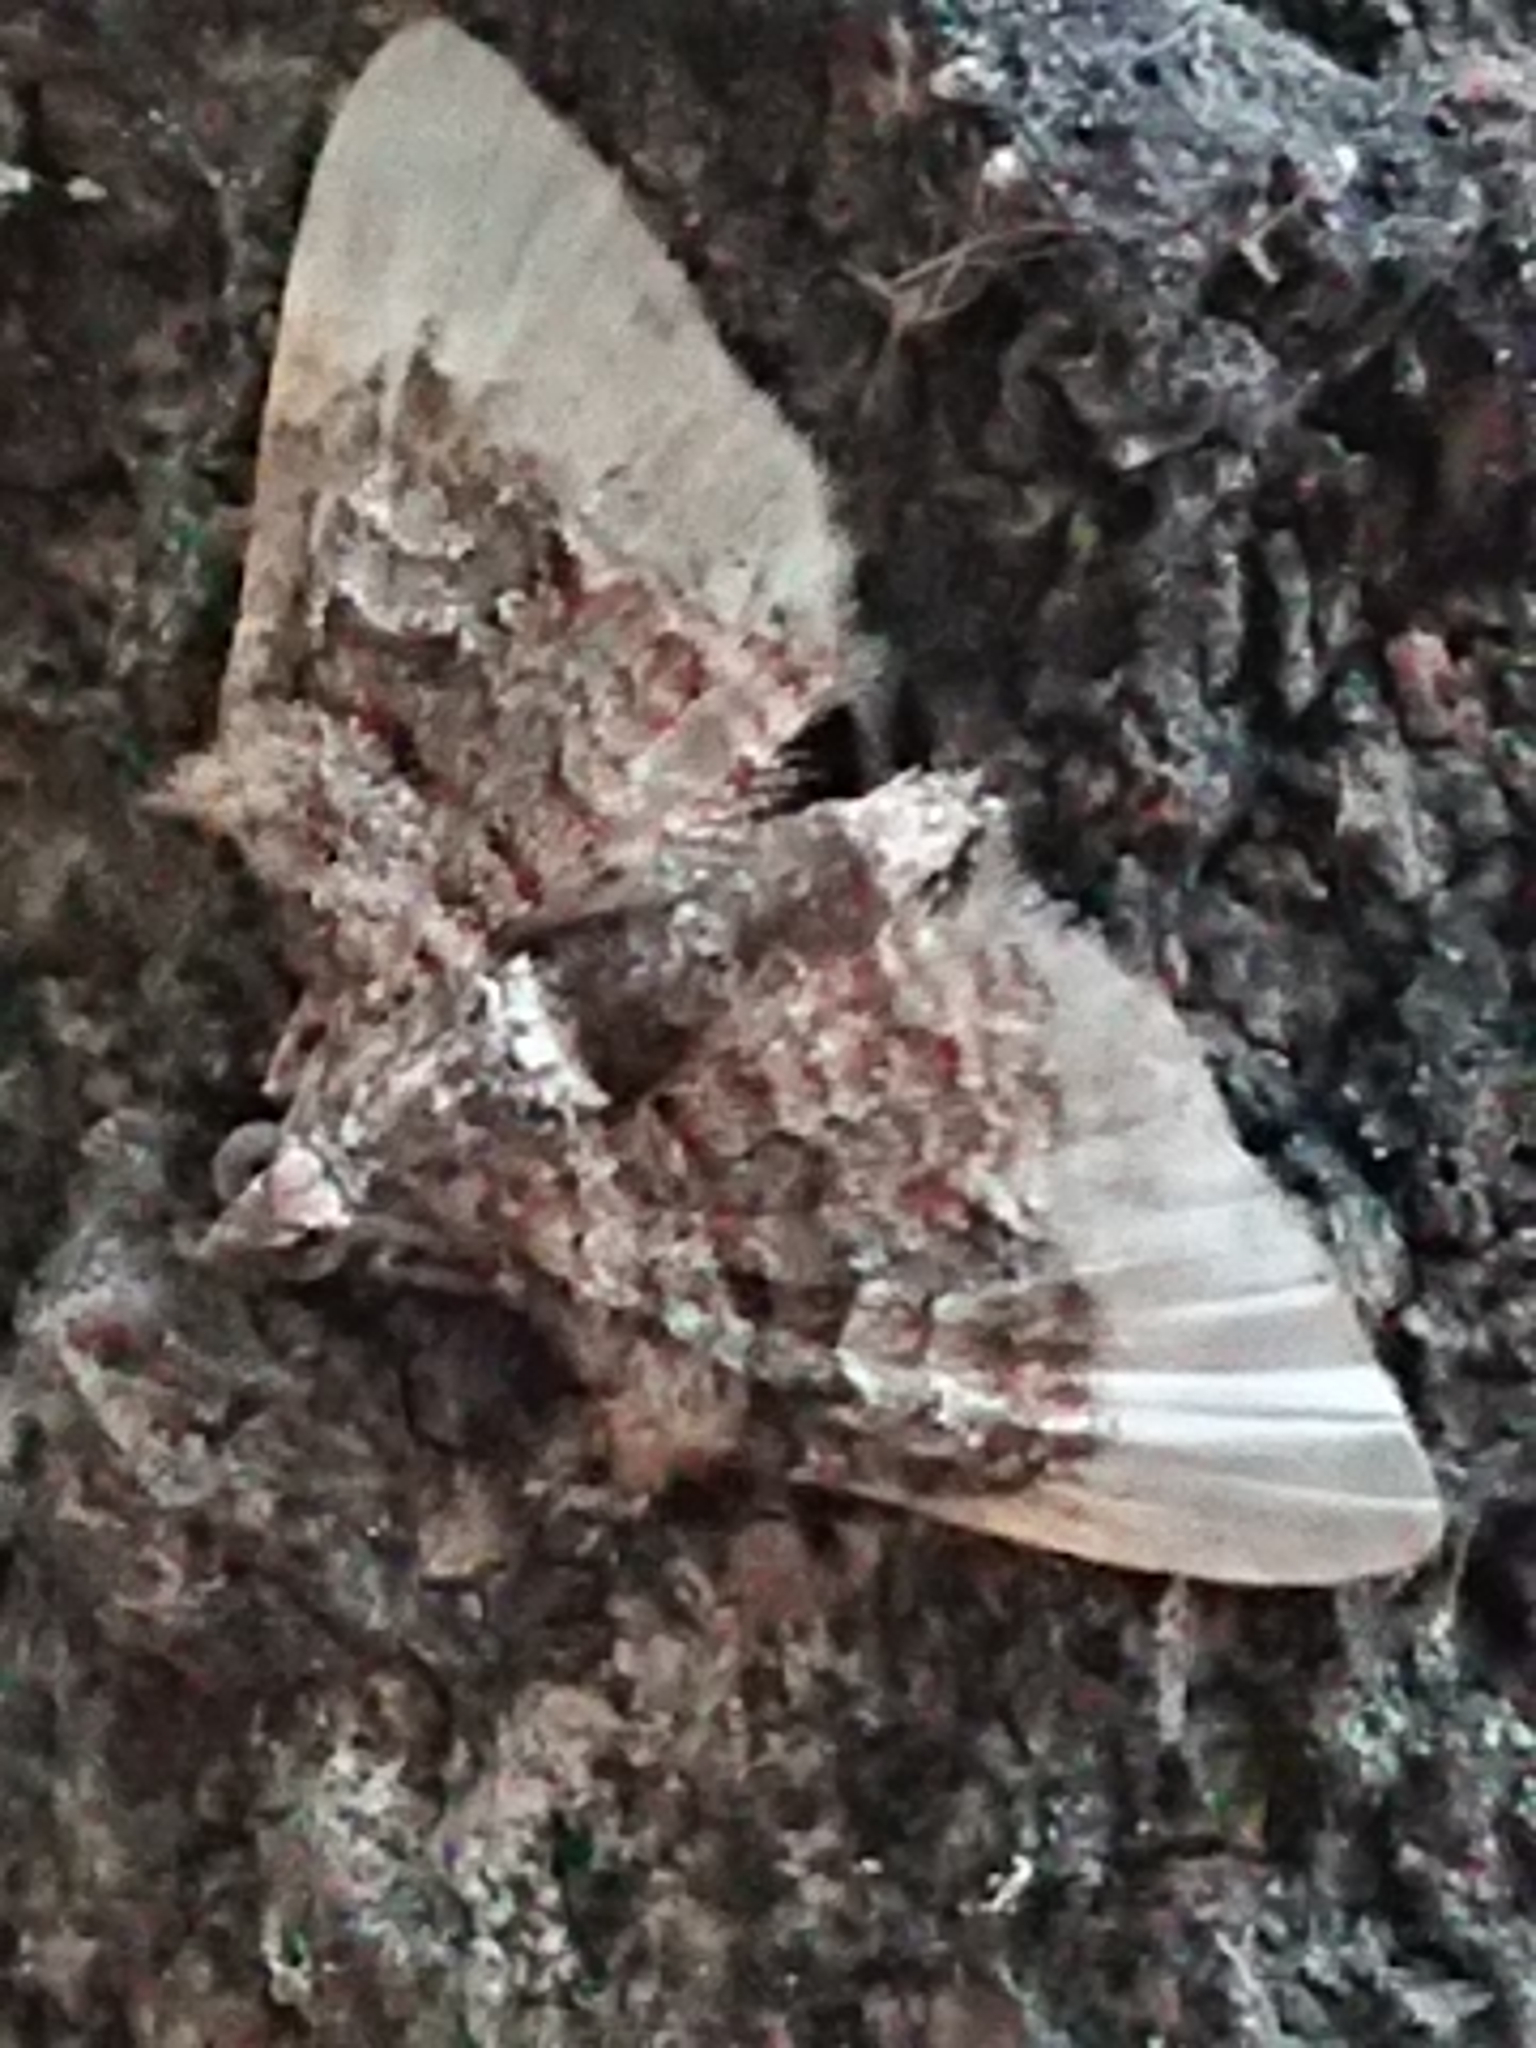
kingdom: Animalia
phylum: Arthropoda
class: Insecta
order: Lepidoptera
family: Geometridae
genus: Phrissogonus
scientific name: Phrissogonus laticostata
